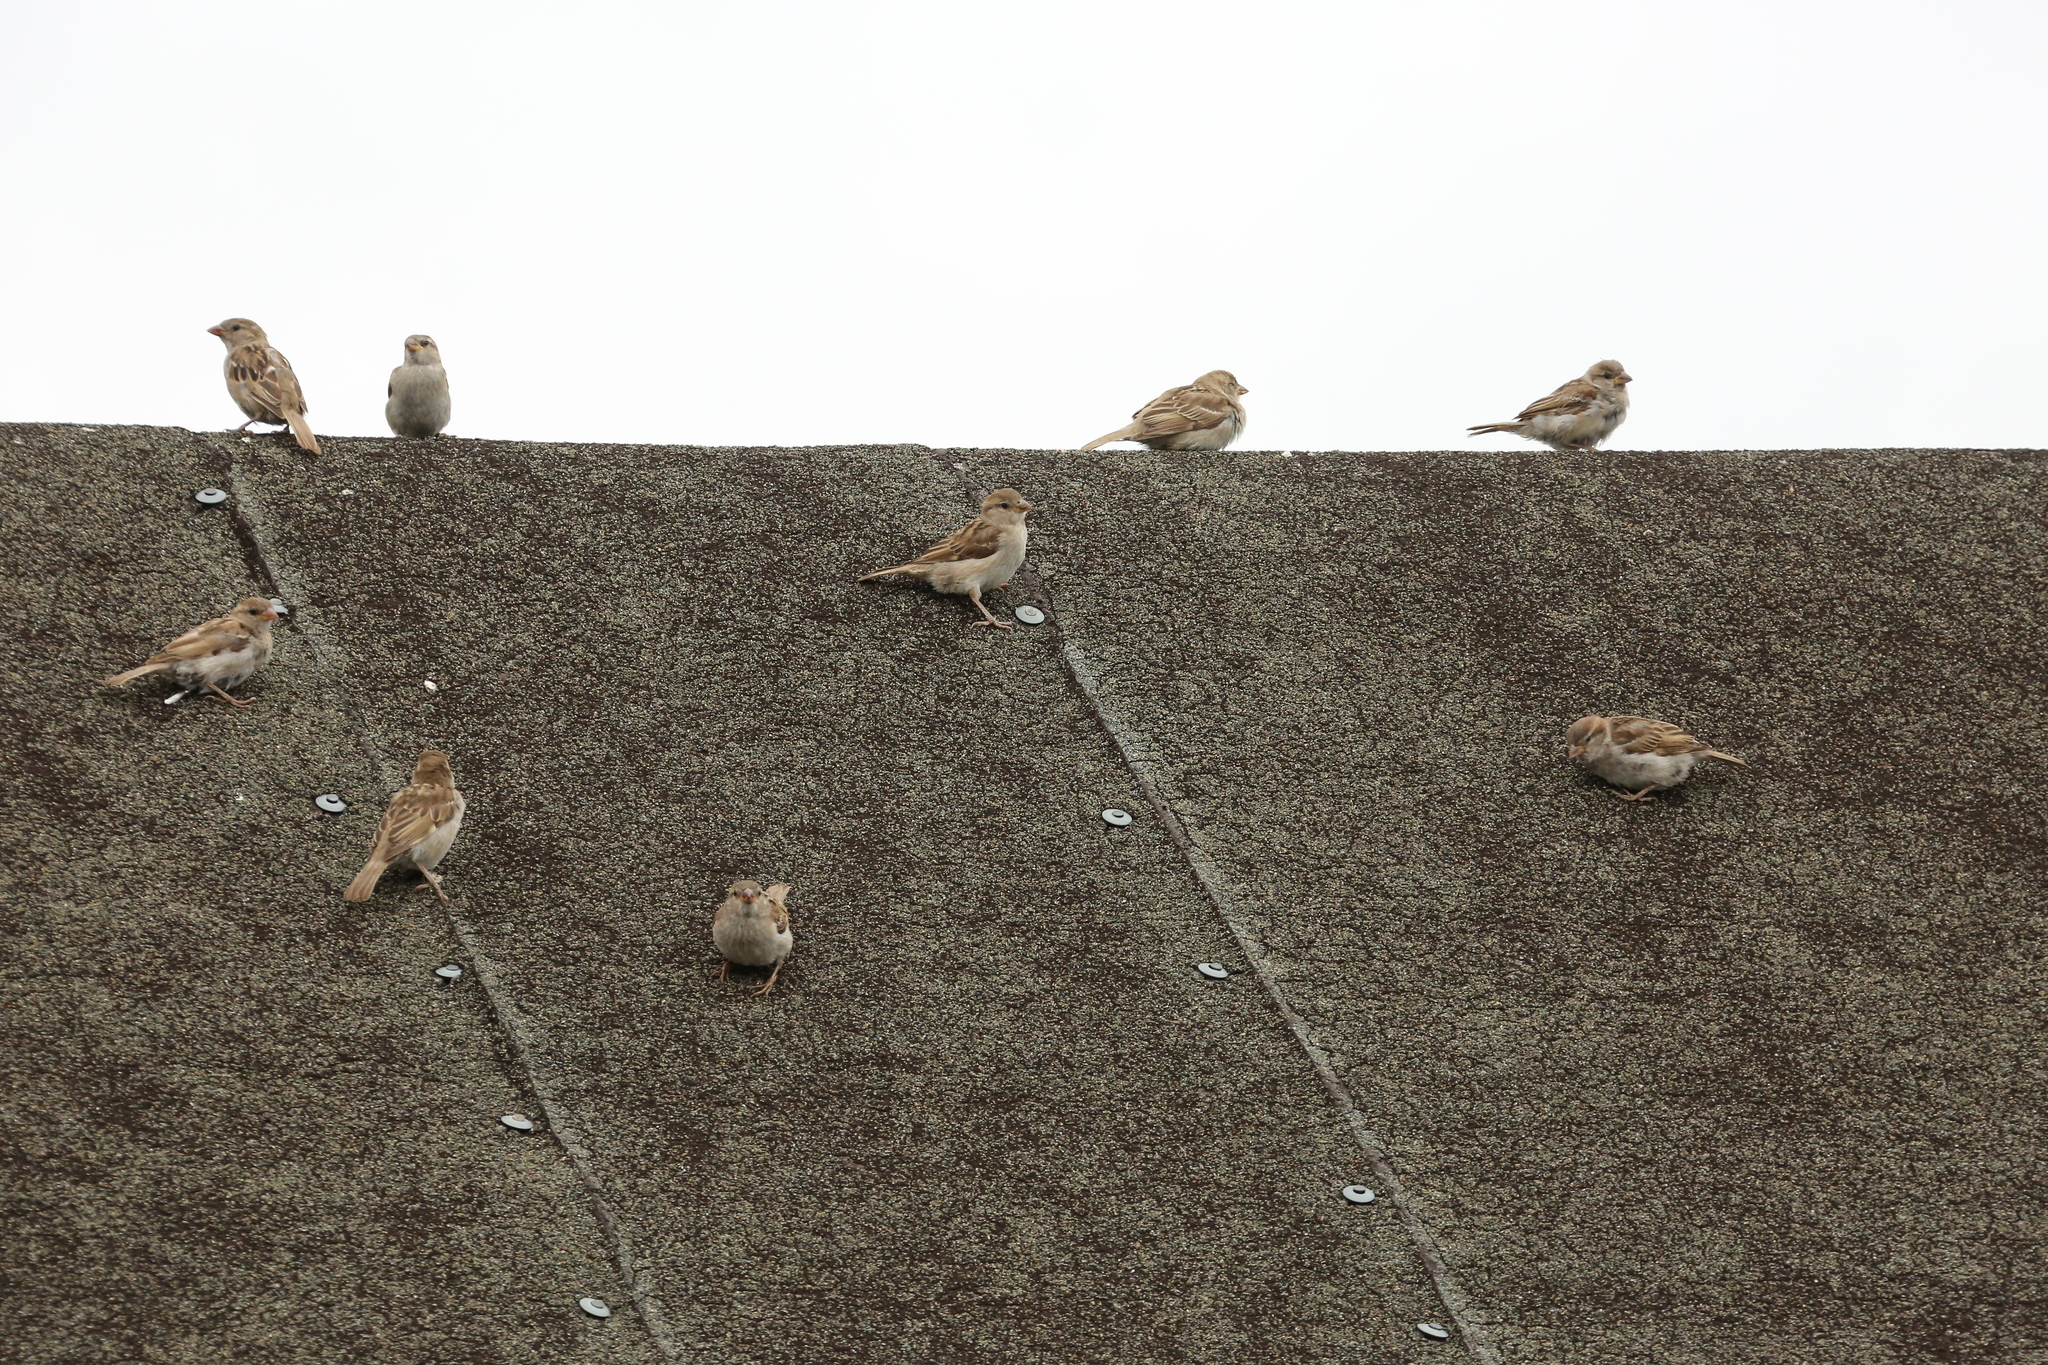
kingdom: Animalia
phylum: Chordata
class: Aves
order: Passeriformes
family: Passeridae
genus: Passer
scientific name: Passer domesticus
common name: House sparrow
